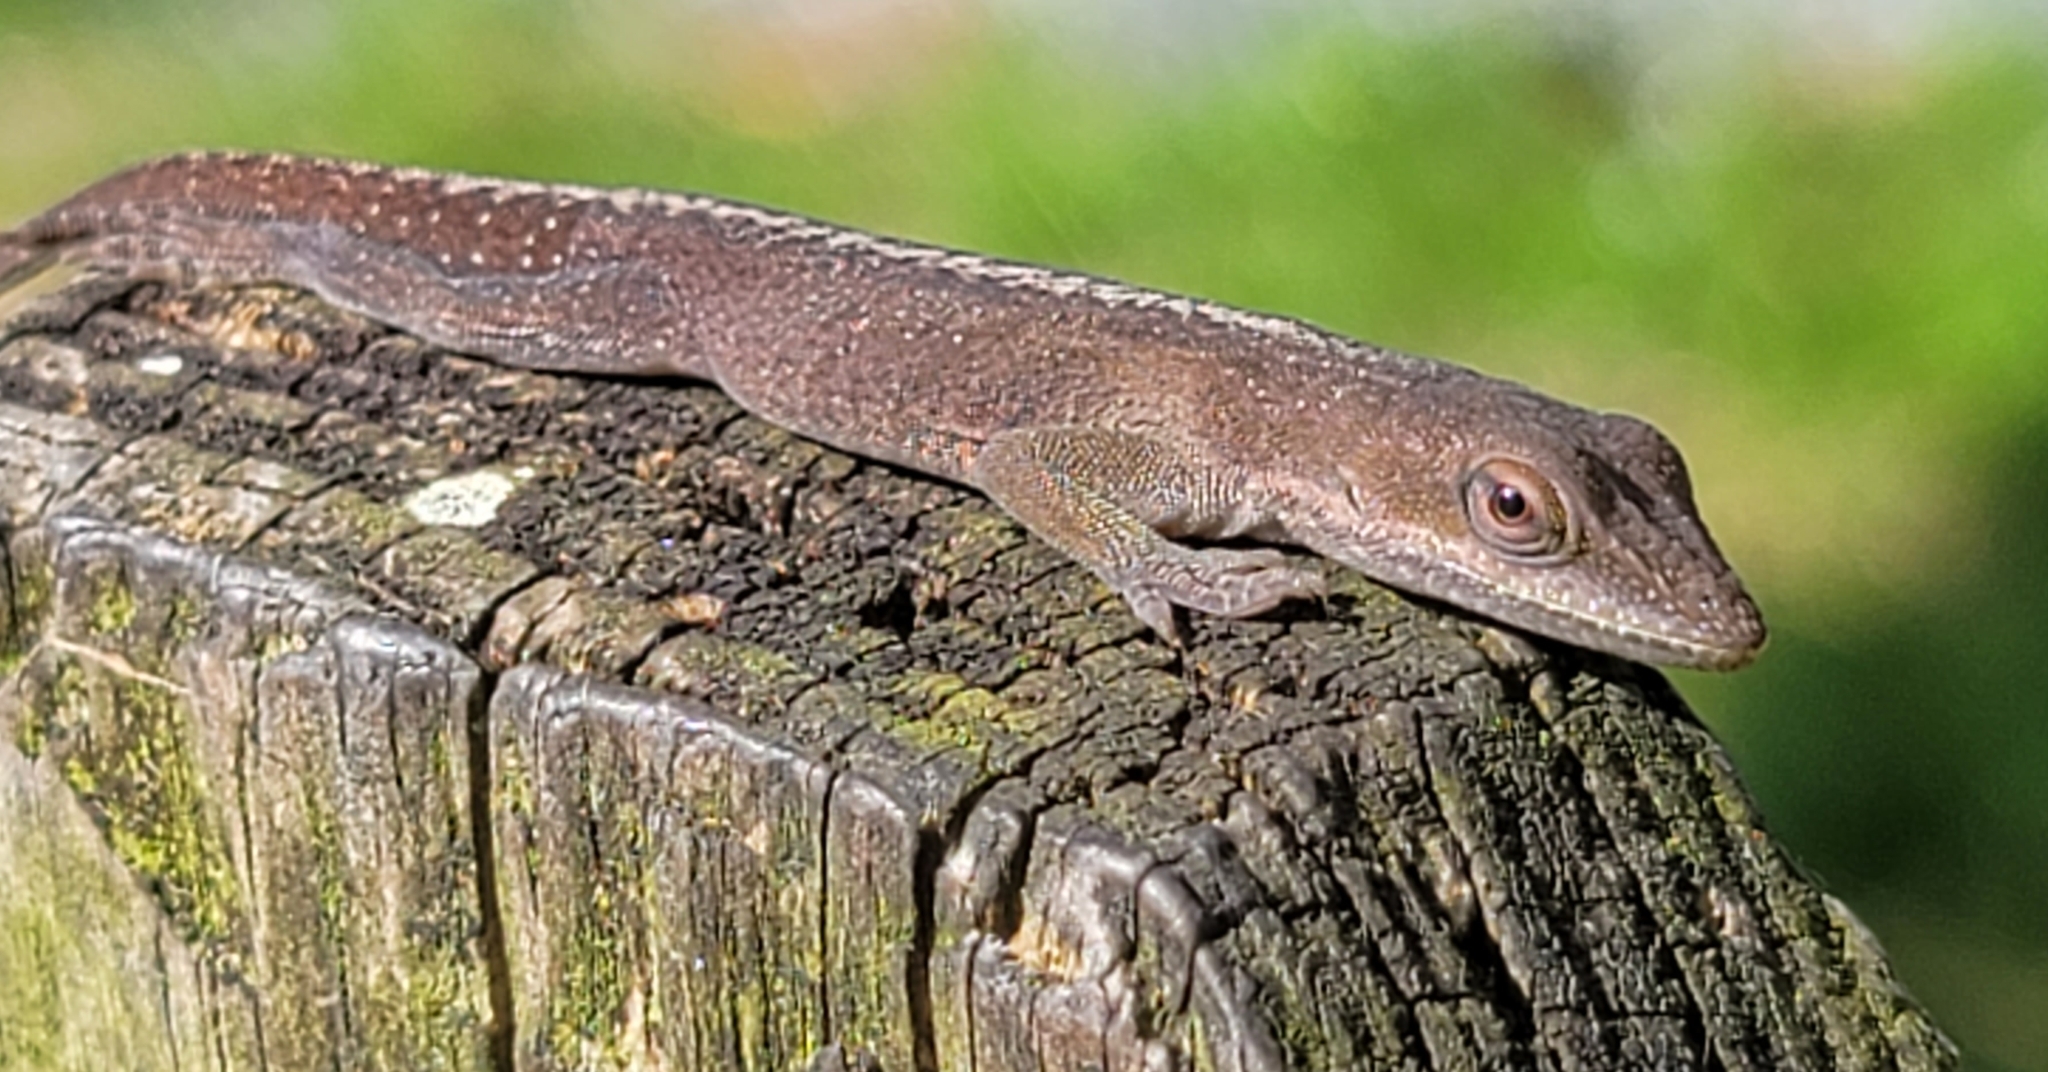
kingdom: Animalia
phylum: Chordata
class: Squamata
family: Dactyloidae
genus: Anolis
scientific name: Anolis carolinensis
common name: Green anole
